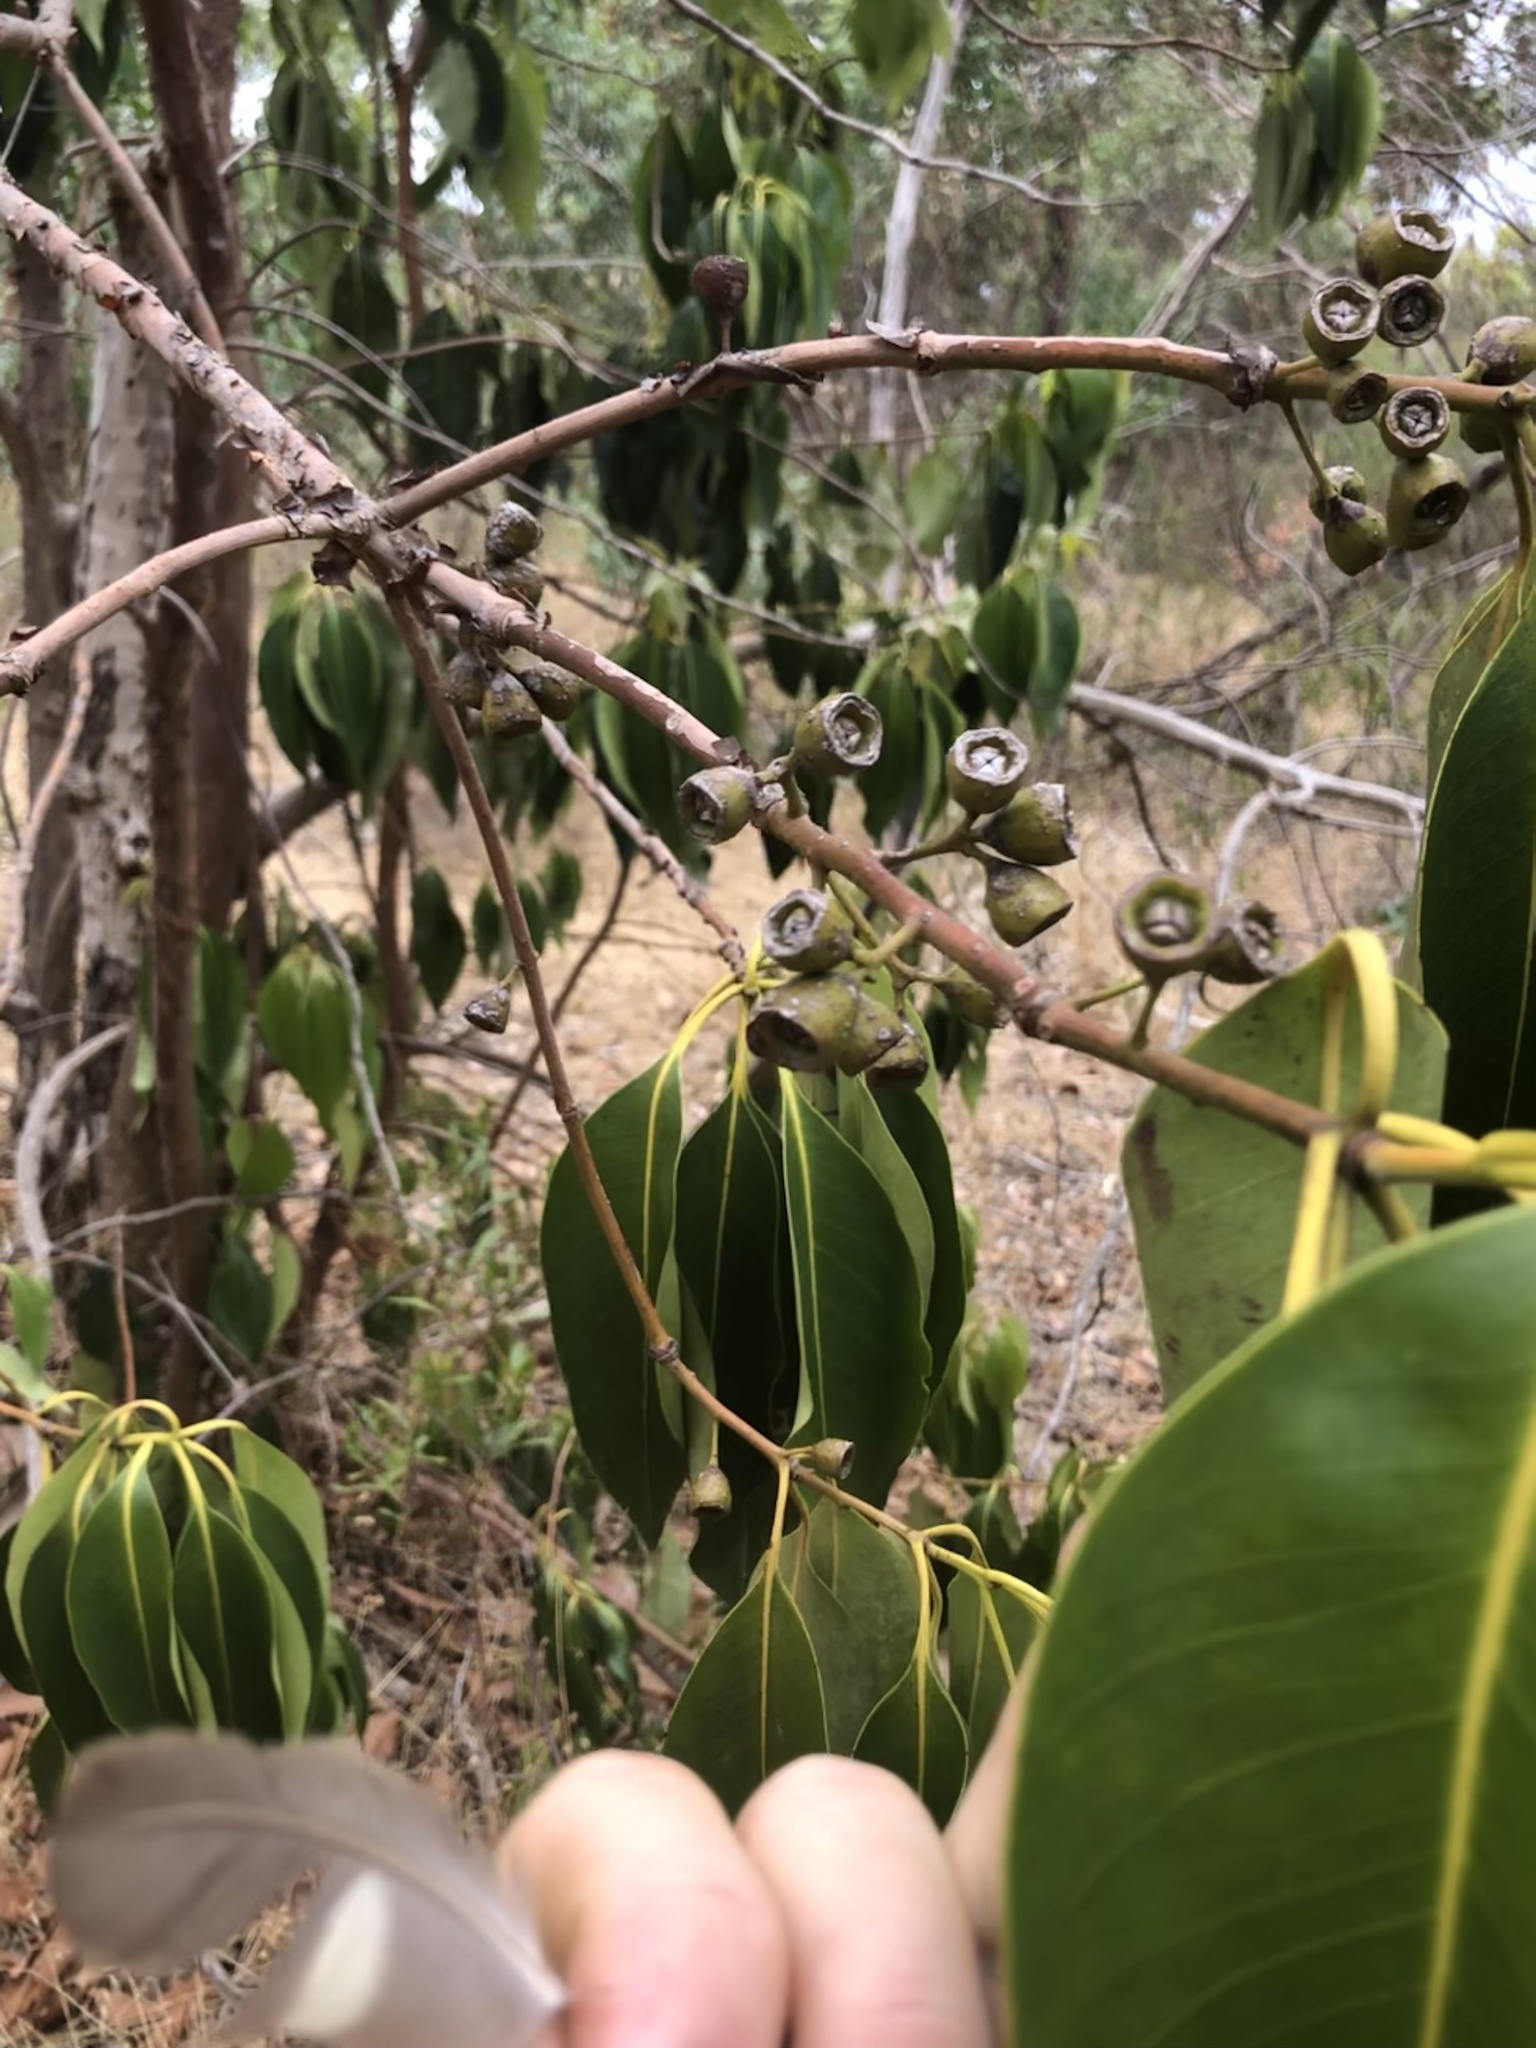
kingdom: Plantae
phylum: Tracheophyta
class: Magnoliopsida
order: Myrtales
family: Myrtaceae
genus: Lophostemon
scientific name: Lophostemon confertus
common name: Brisbane box
